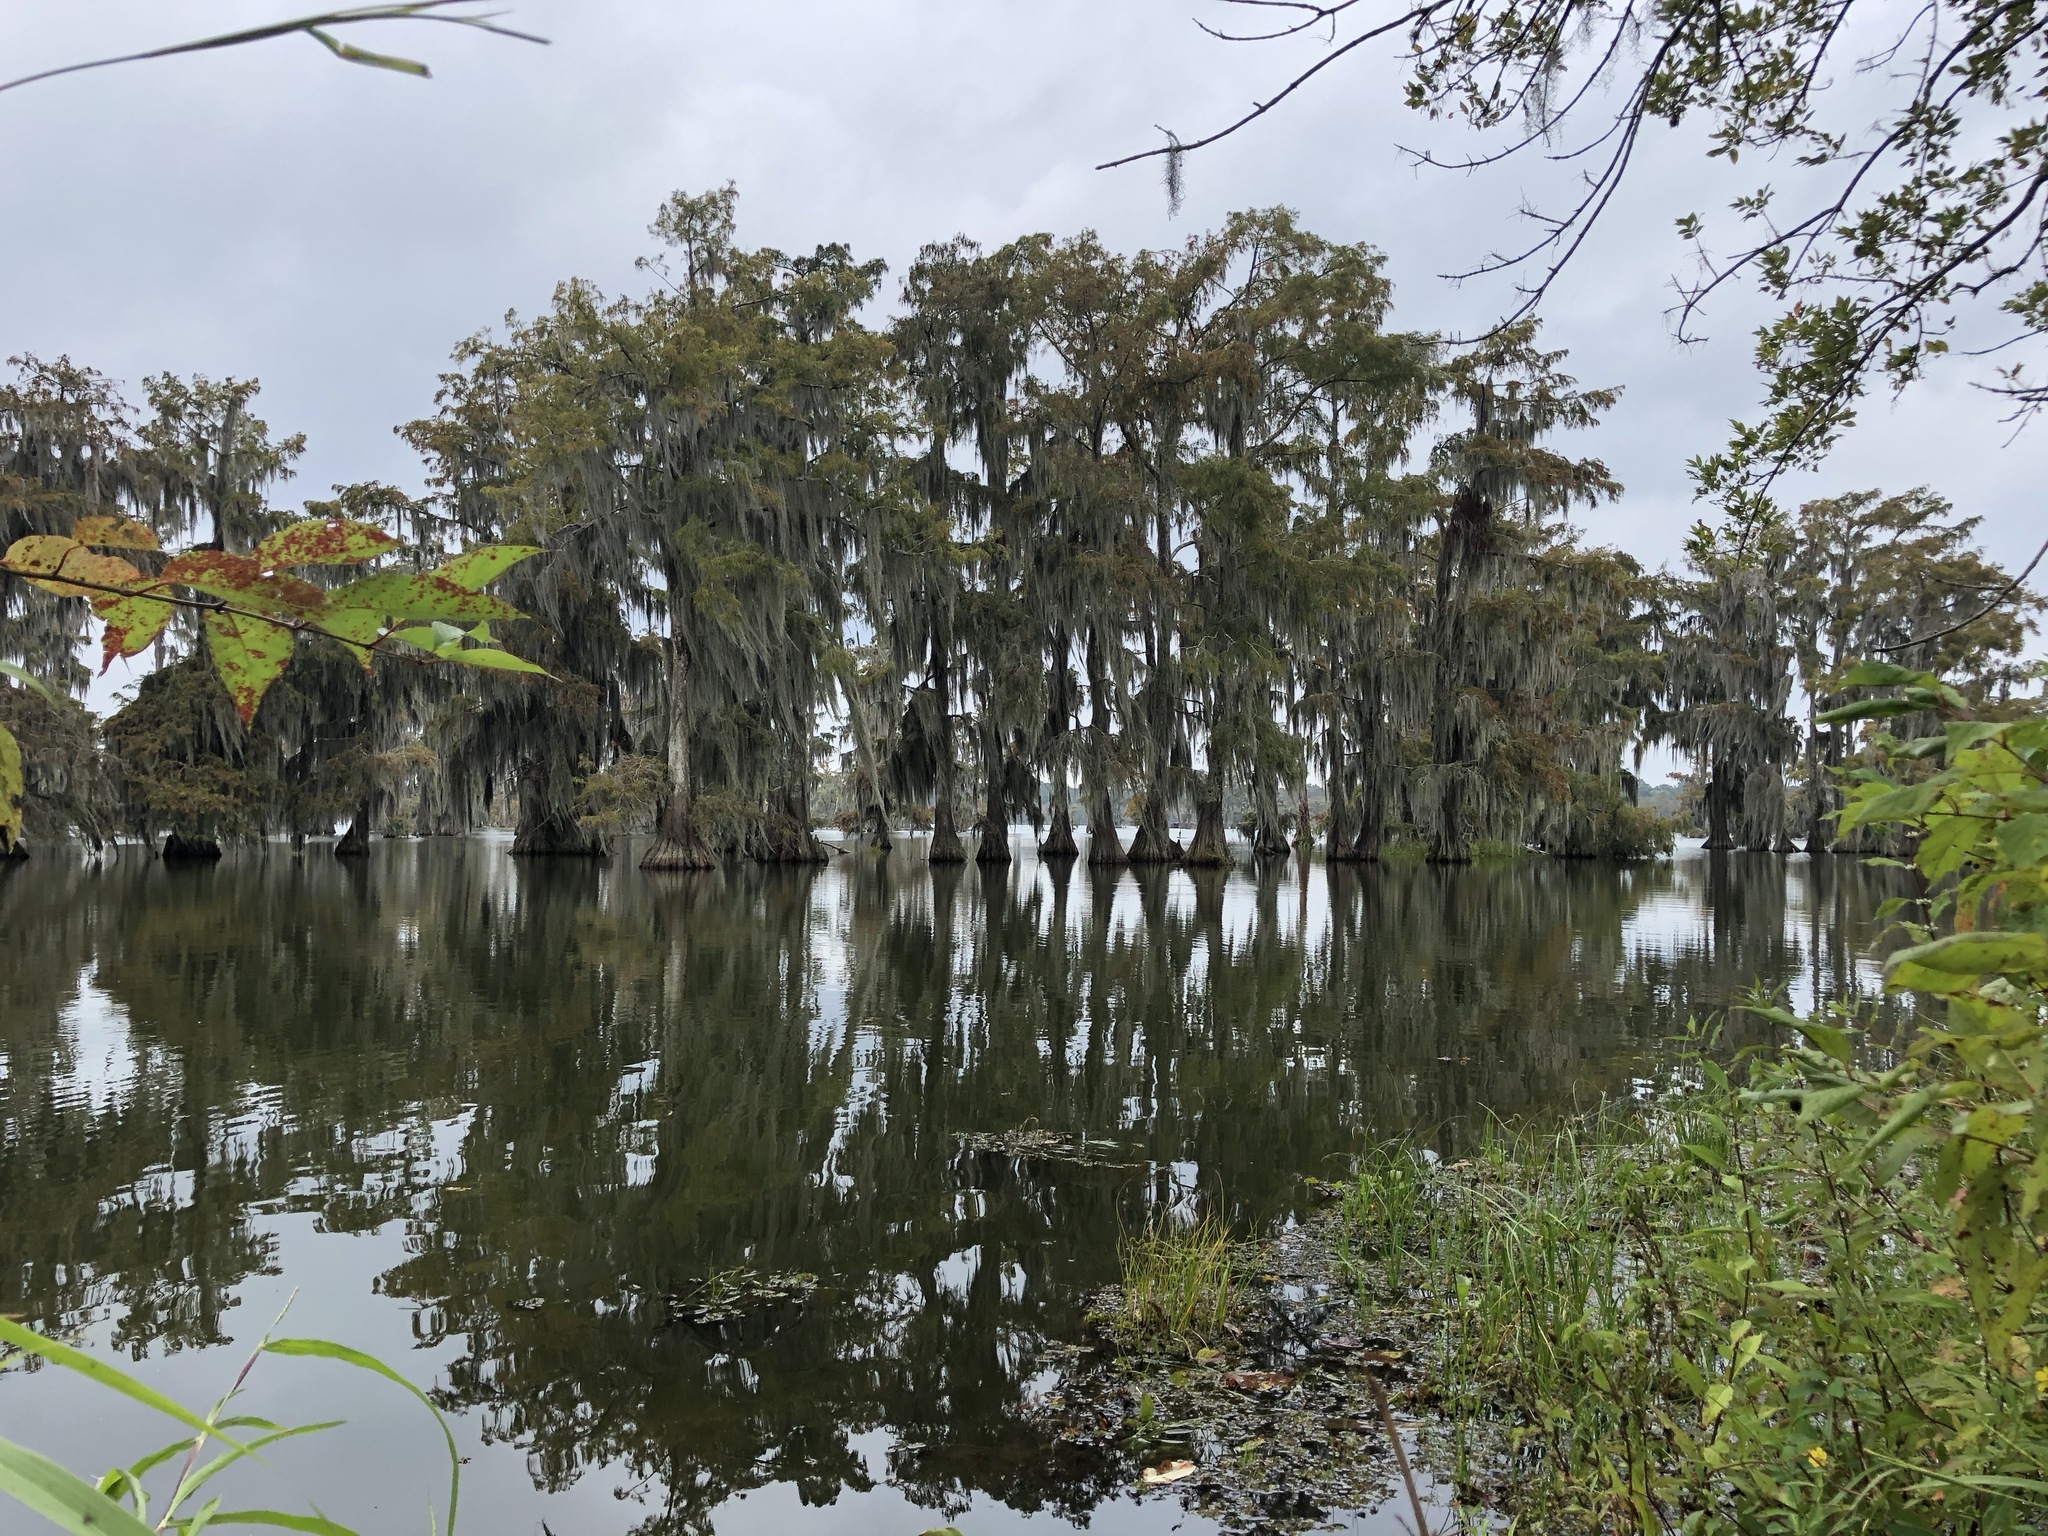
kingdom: Plantae
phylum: Tracheophyta
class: Liliopsida
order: Poales
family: Bromeliaceae
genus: Tillandsia
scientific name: Tillandsia usneoides
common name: Spanish moss
